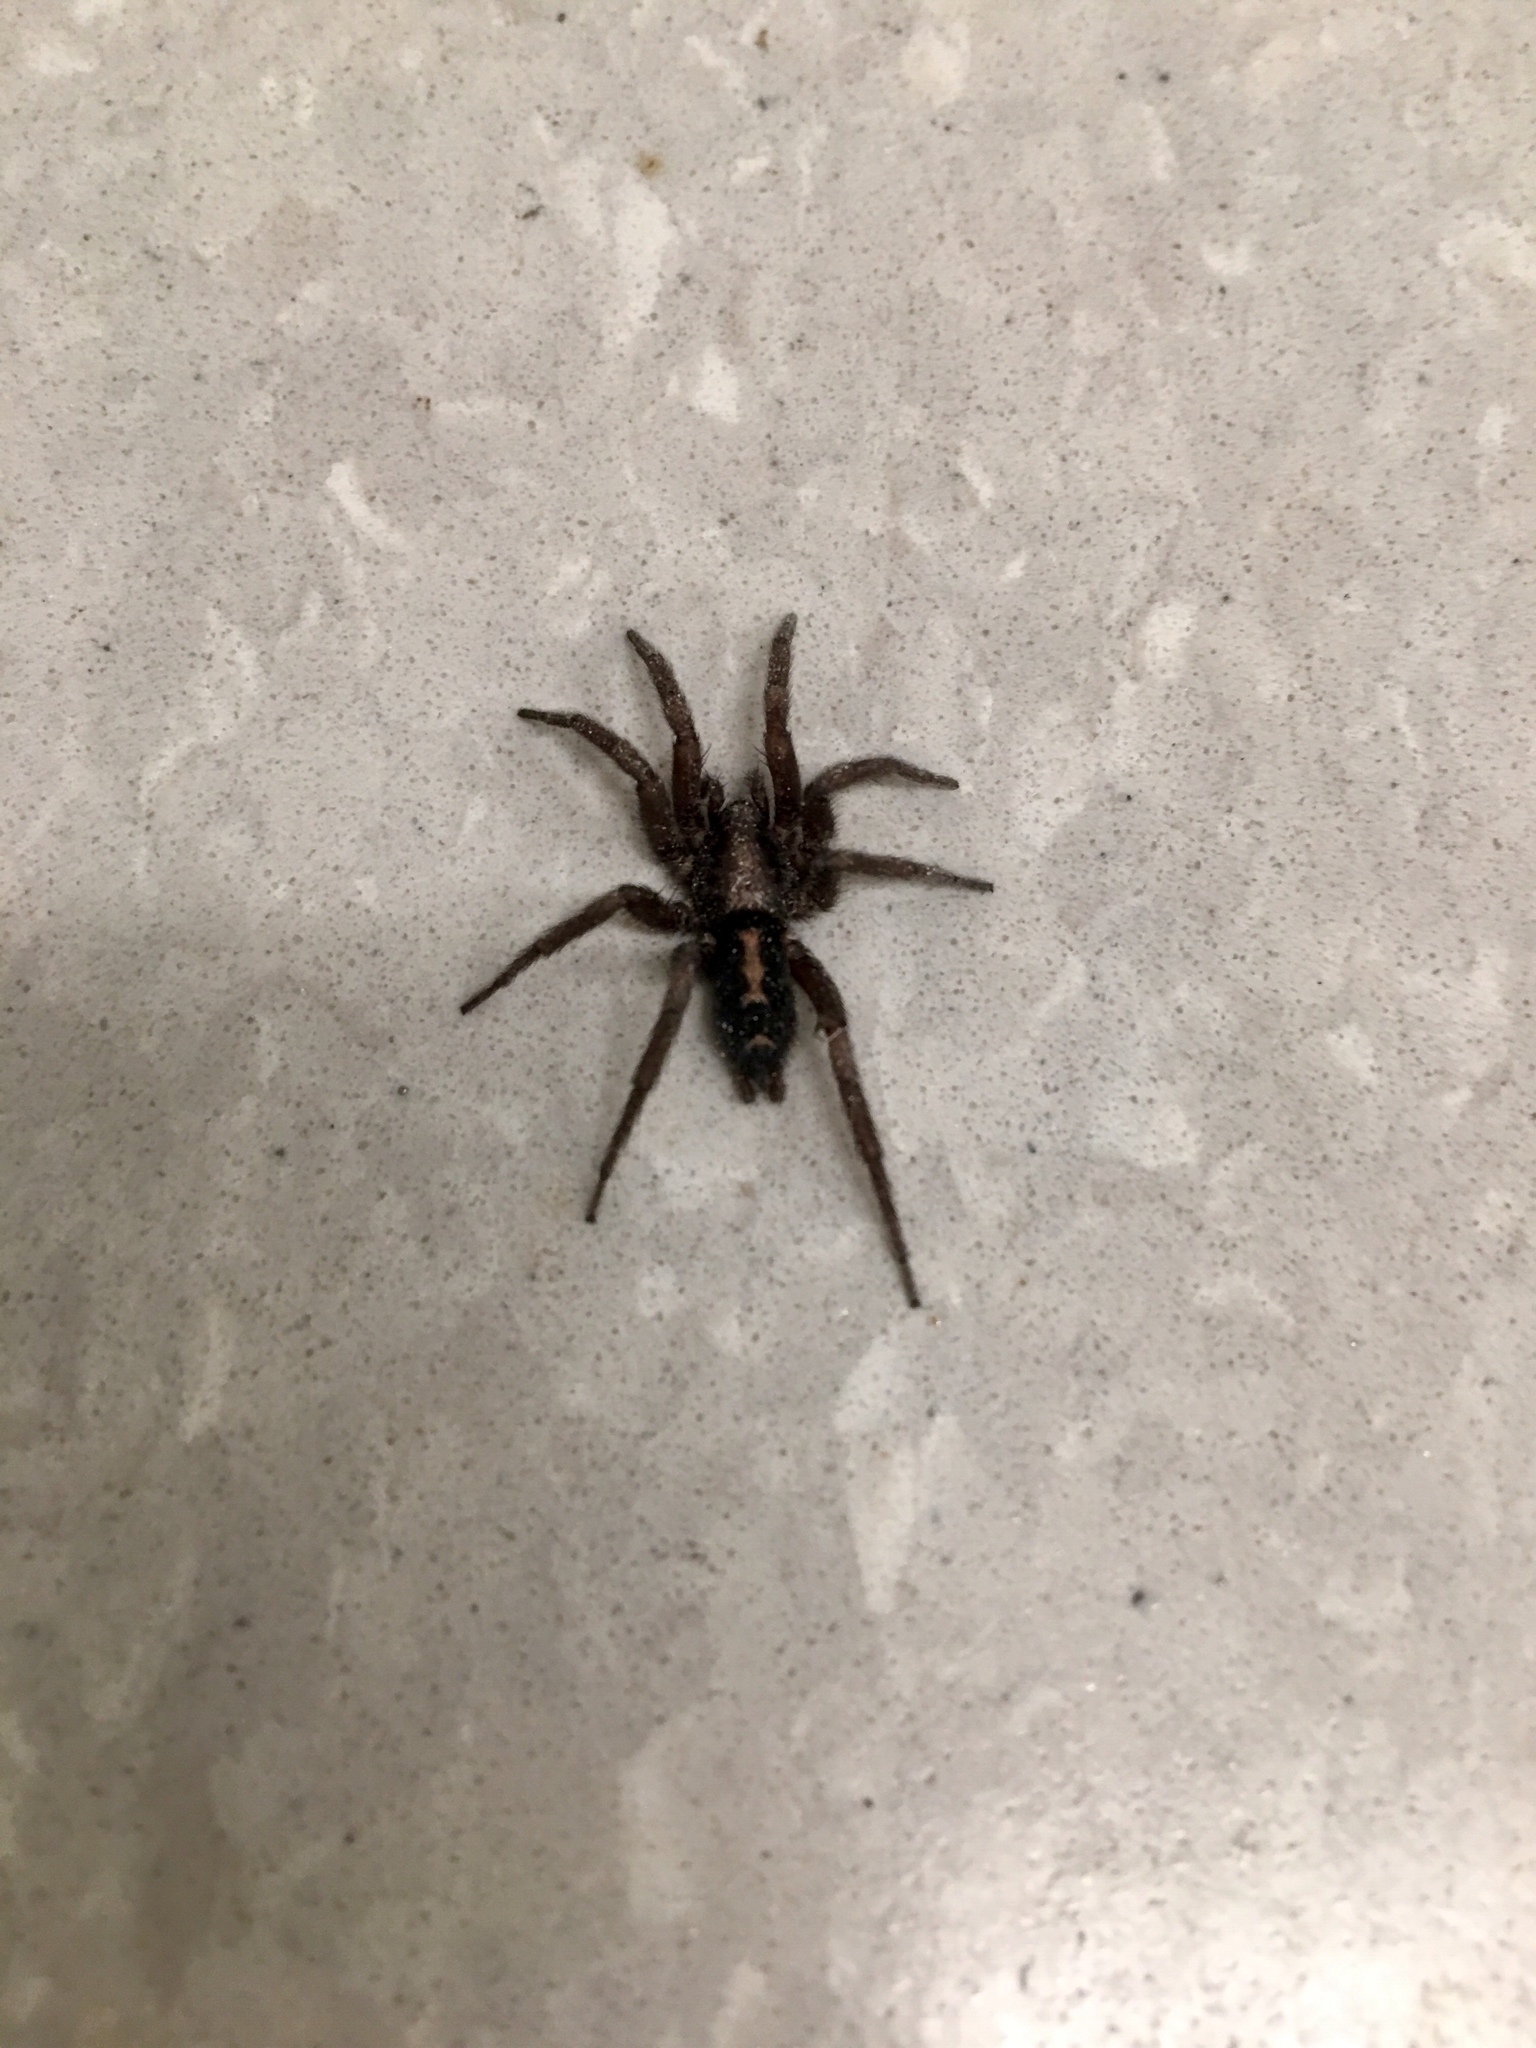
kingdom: Animalia
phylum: Arthropoda
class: Arachnida
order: Araneae
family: Gnaphosidae
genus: Herpyllus
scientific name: Herpyllus propinquus
